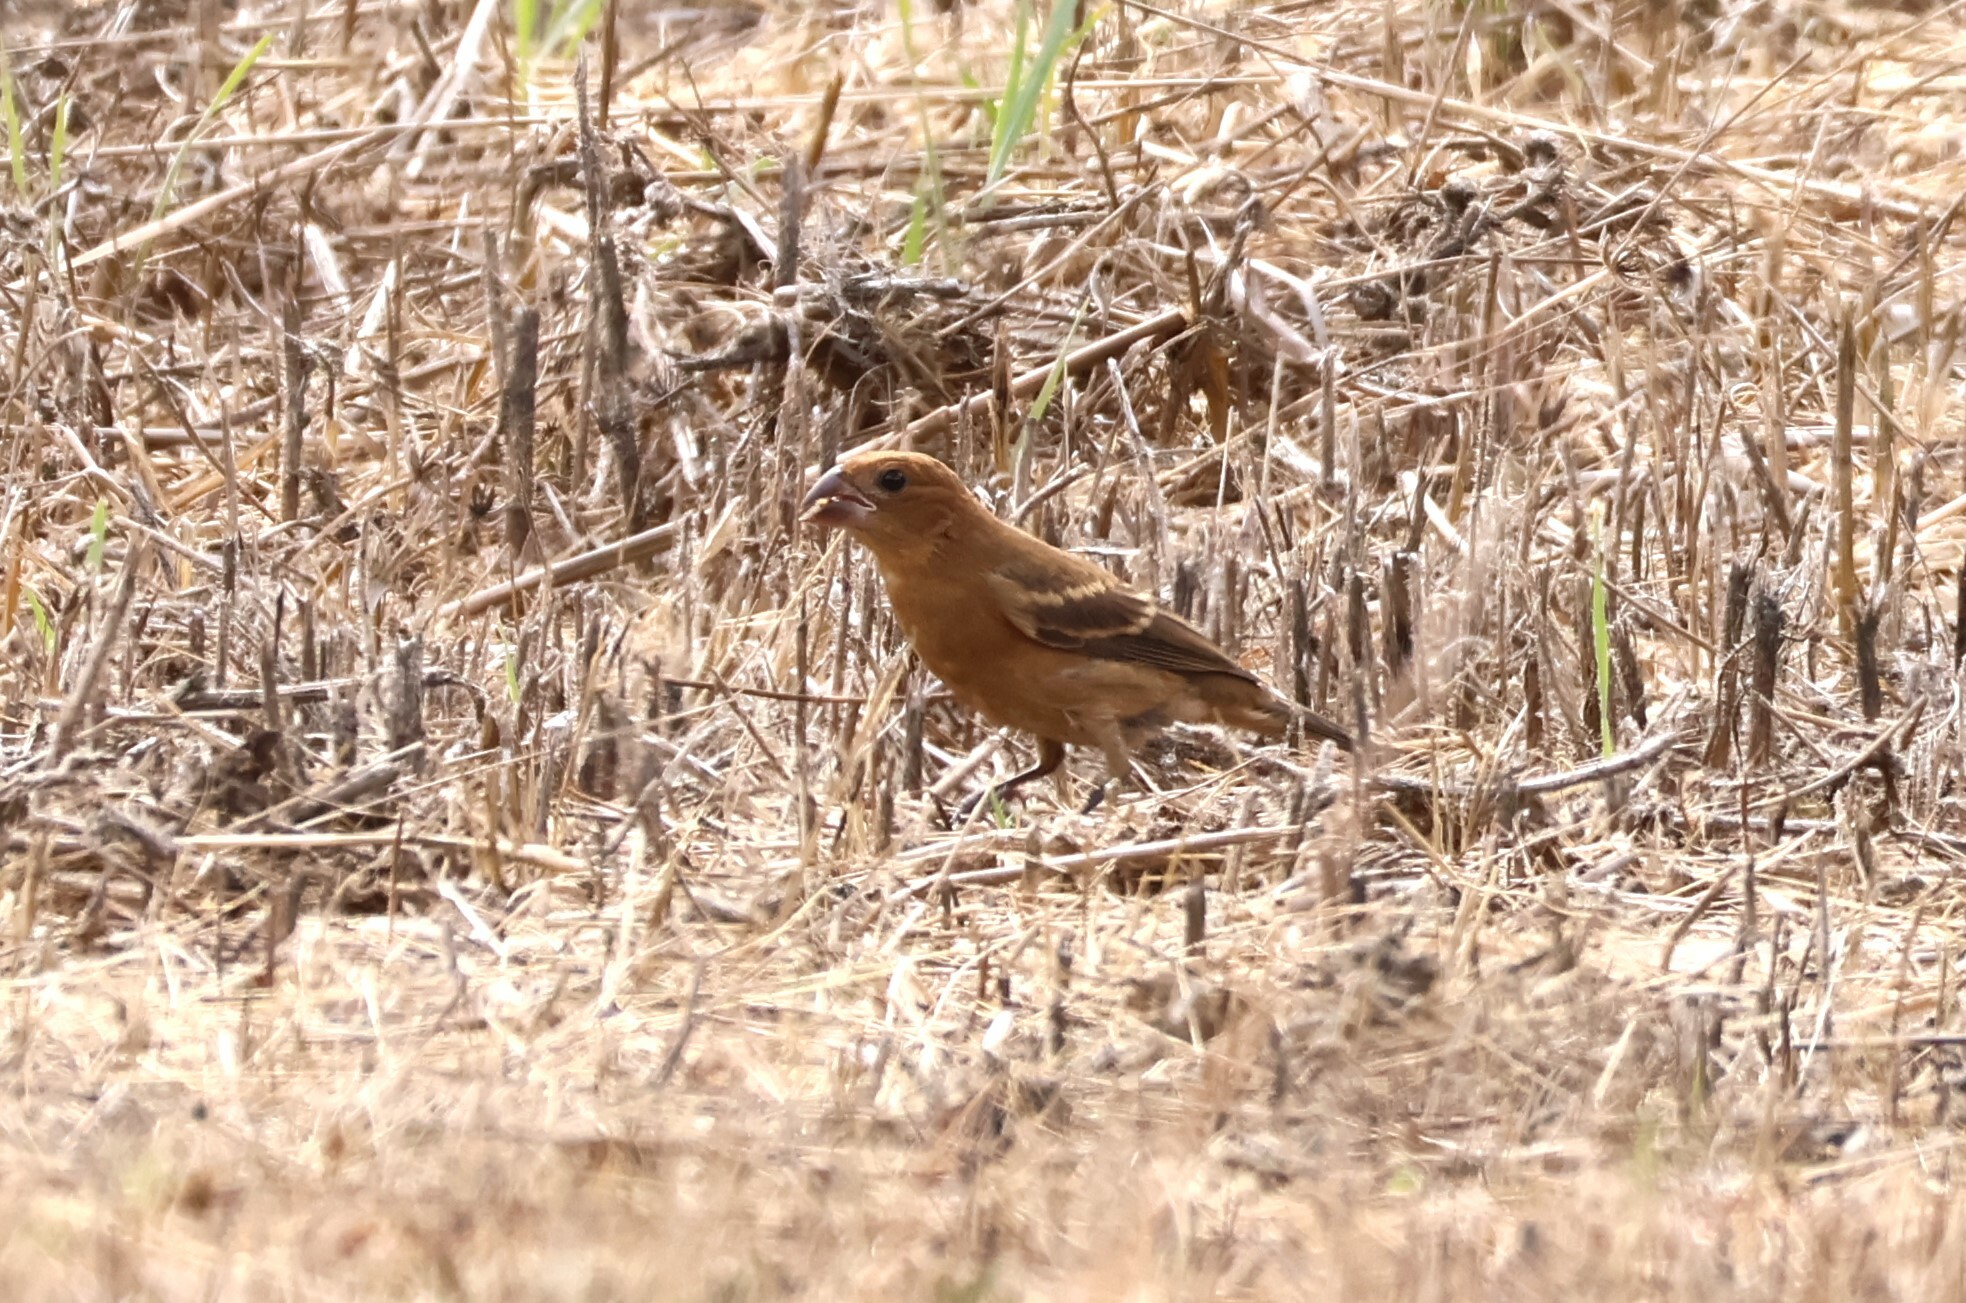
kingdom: Animalia
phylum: Chordata
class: Aves
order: Passeriformes
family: Cardinalidae
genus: Passerina
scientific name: Passerina caerulea
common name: Blue grosbeak
